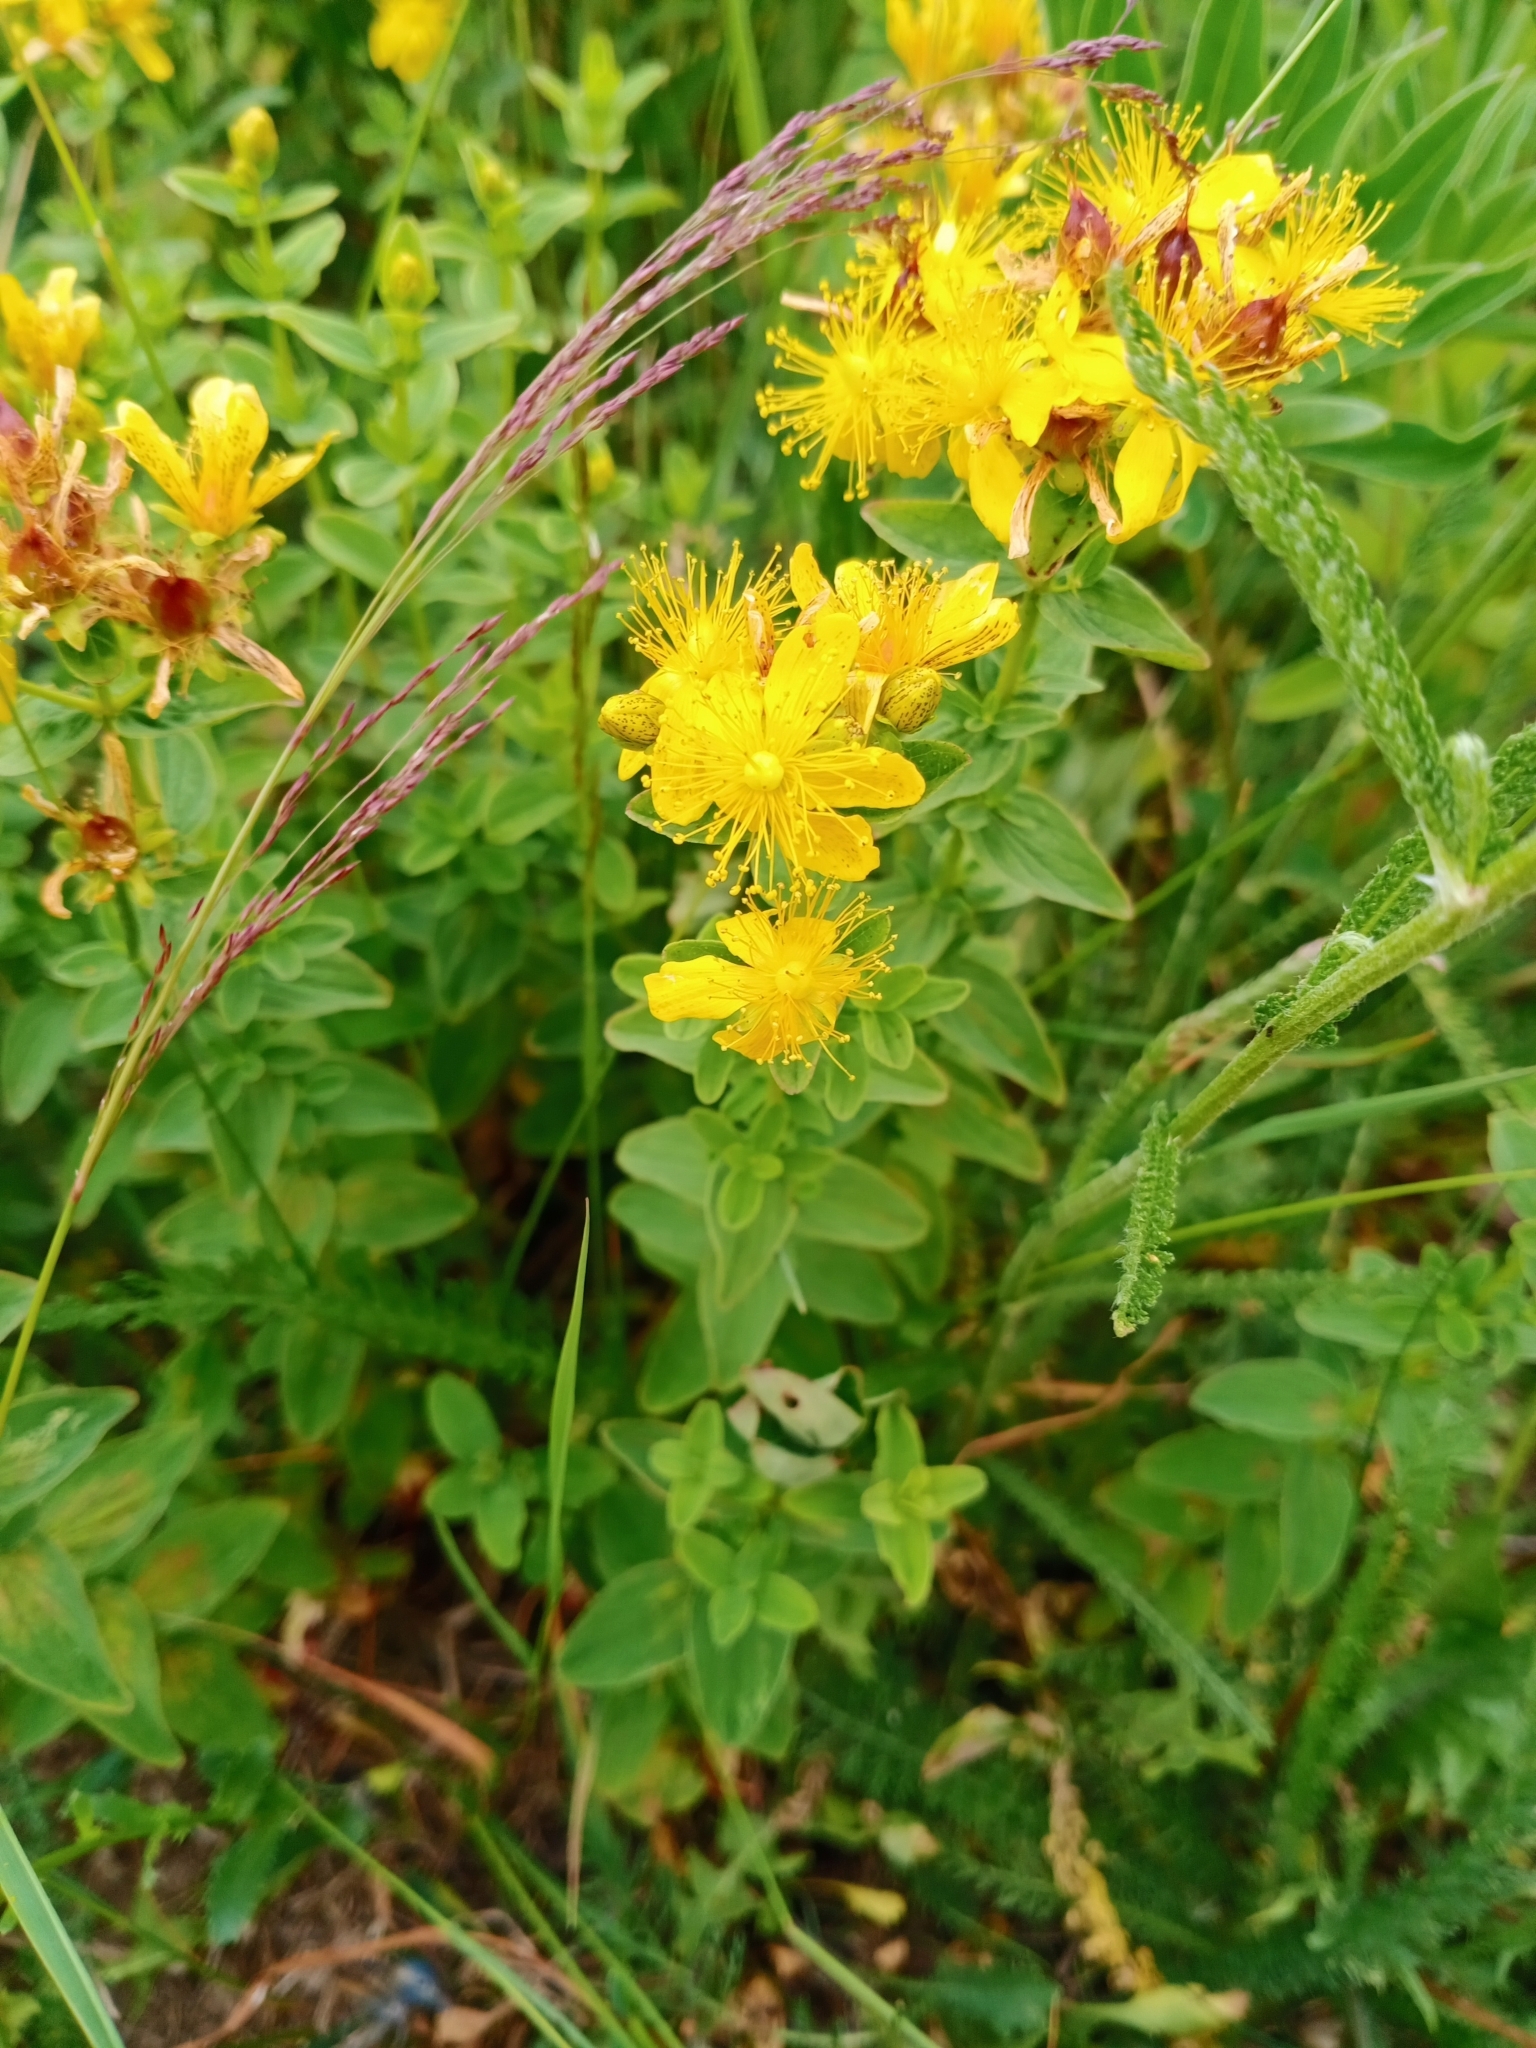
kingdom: Plantae
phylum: Tracheophyta
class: Magnoliopsida
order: Malpighiales
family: Hypericaceae
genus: Hypericum
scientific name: Hypericum maculatum
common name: Imperforate st. john's-wort
